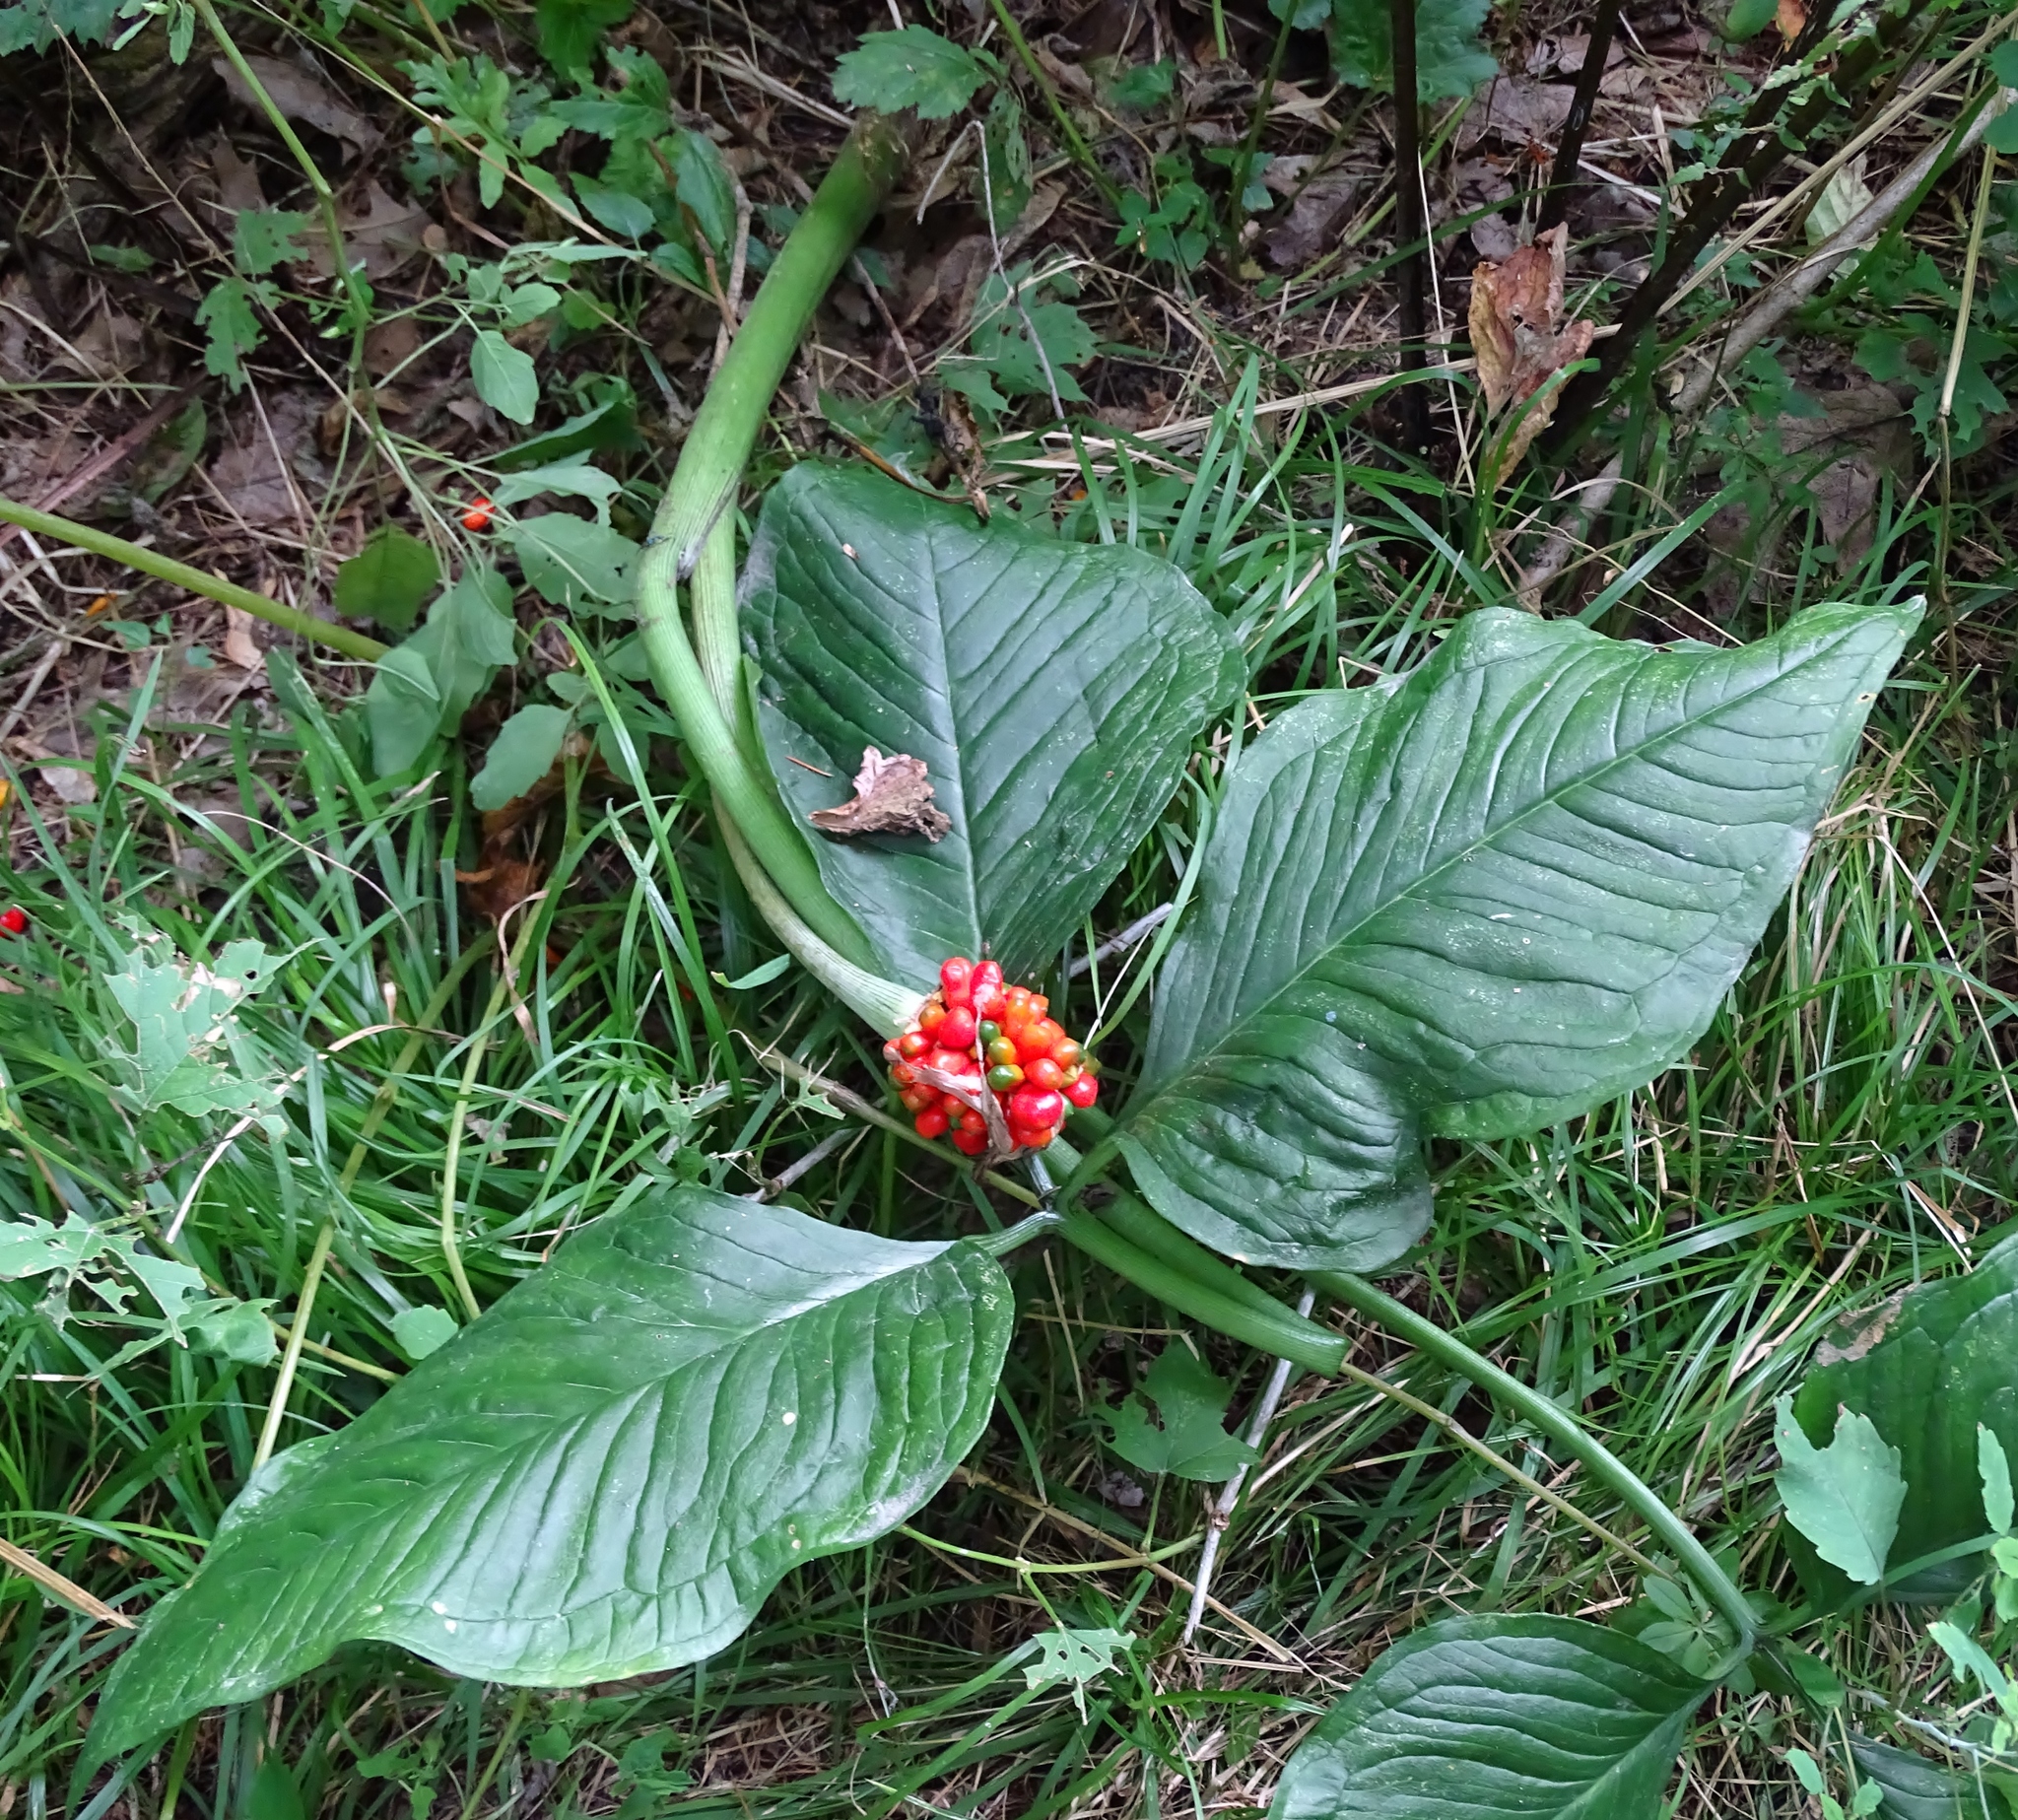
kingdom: Plantae
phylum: Tracheophyta
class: Liliopsida
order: Alismatales
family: Araceae
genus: Arisaema
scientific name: Arisaema triphyllum
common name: Jack-in-the-pulpit
